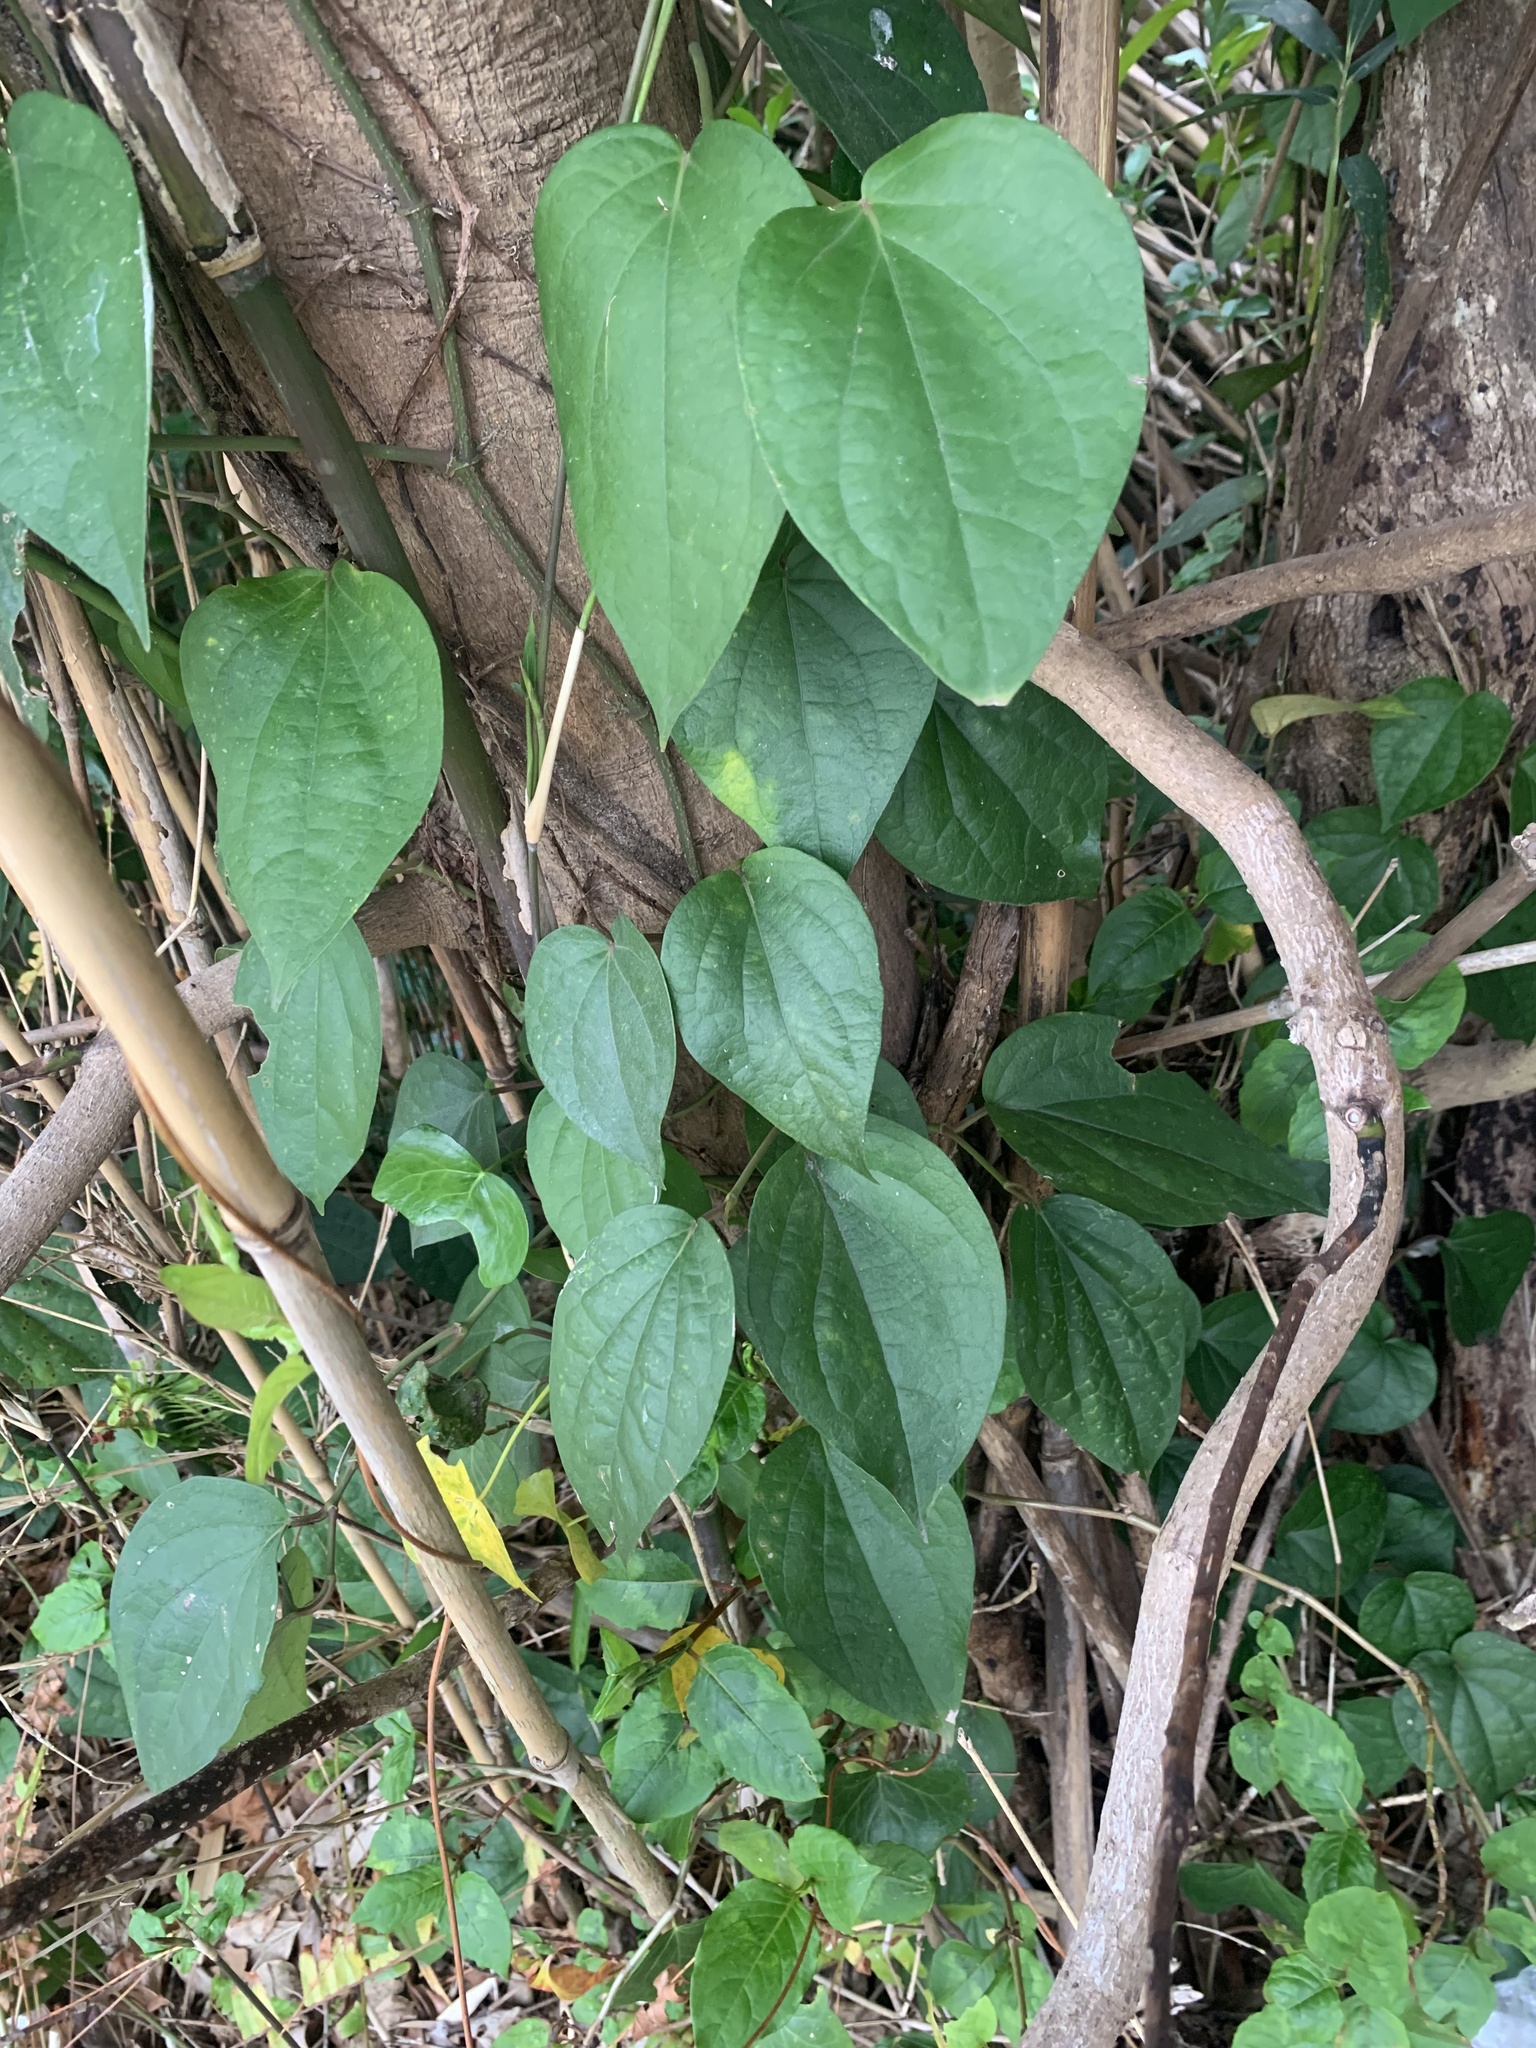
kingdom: Plantae
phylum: Tracheophyta
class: Magnoliopsida
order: Piperales
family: Piperaceae
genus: Piper
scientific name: Piper kadsura
